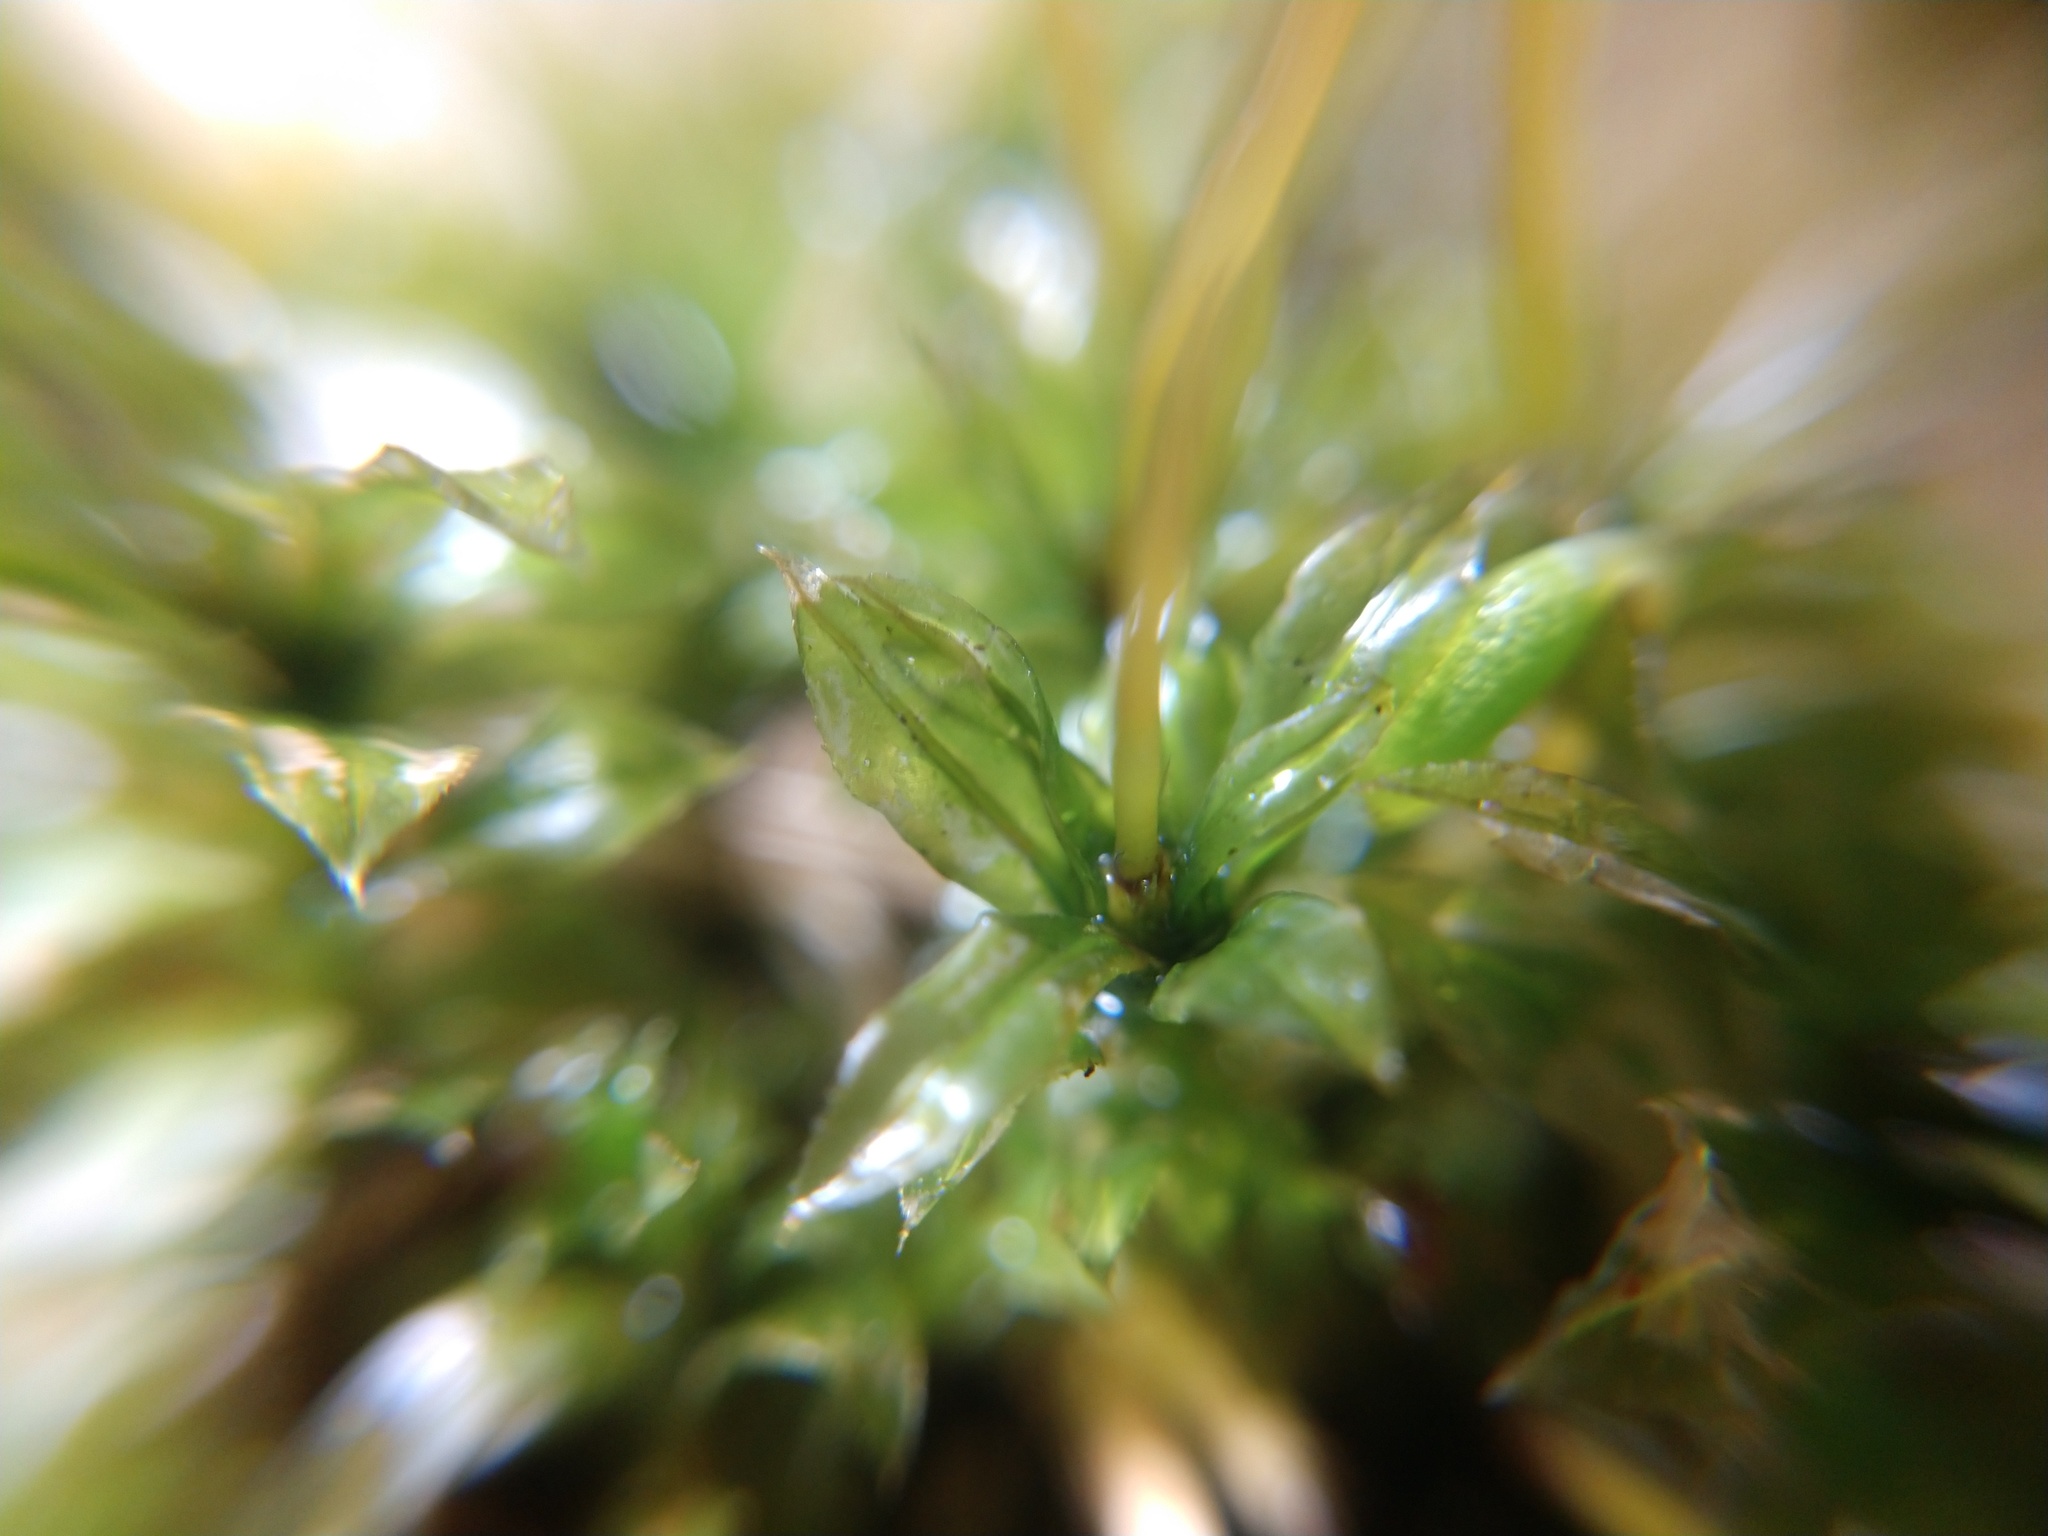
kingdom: Plantae
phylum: Bryophyta
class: Bryopsida
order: Bryales
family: Mniaceae
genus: Plagiomnium
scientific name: Plagiomnium cuspidatum
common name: Woodsy leafy moss
